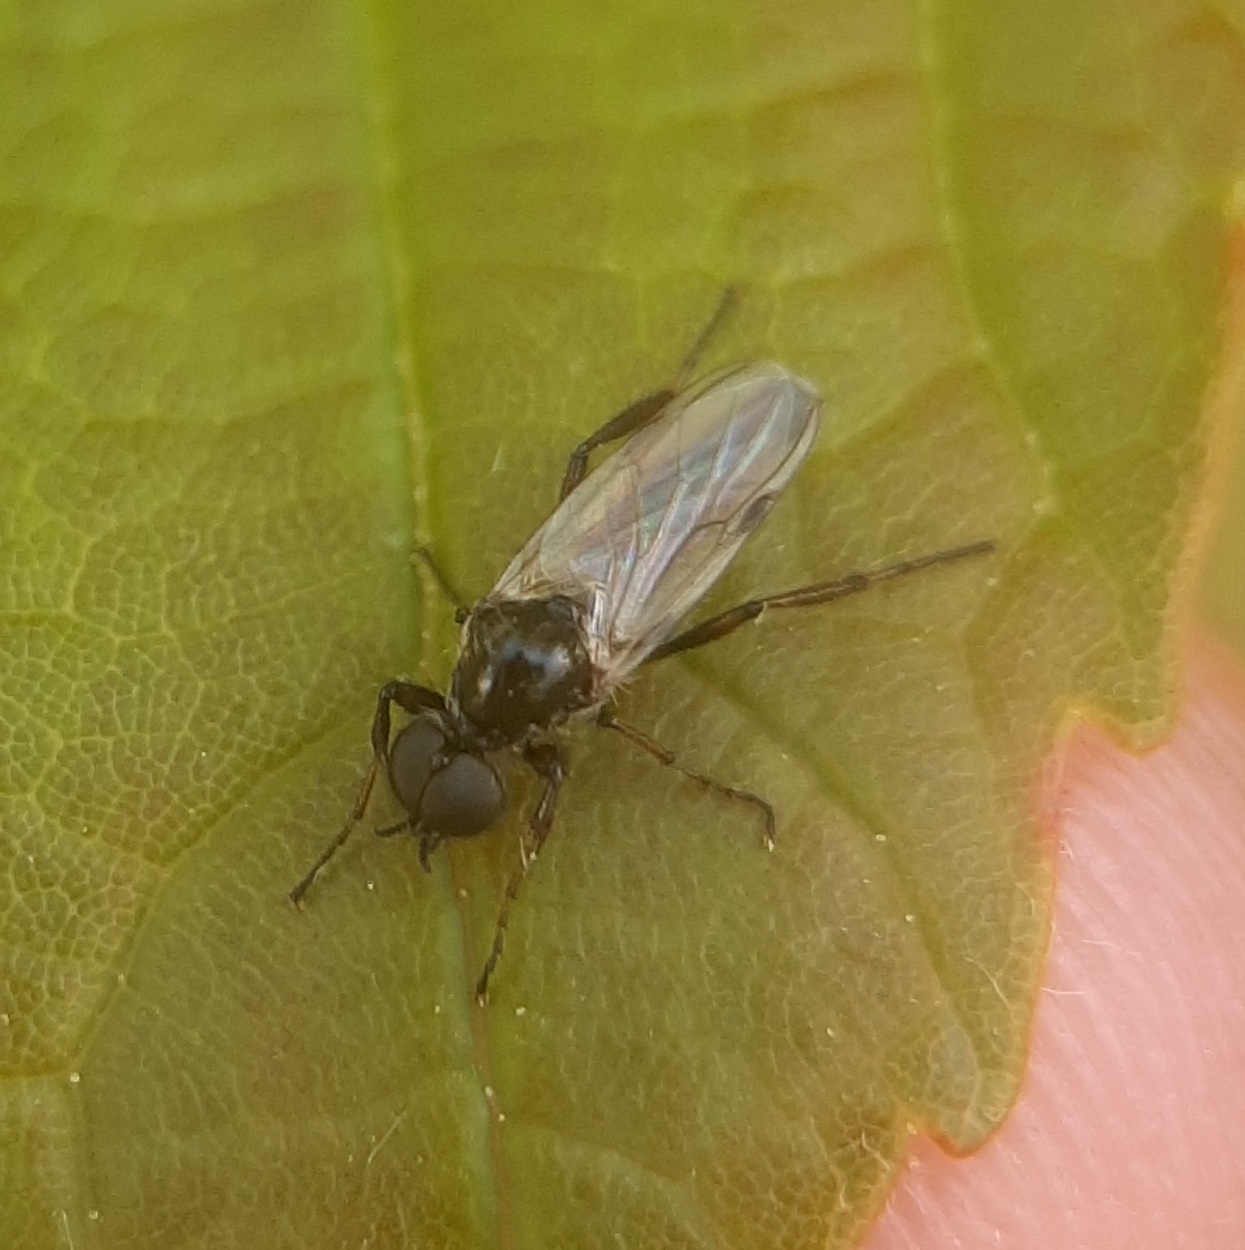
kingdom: Animalia
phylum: Arthropoda
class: Insecta
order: Diptera
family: Bibionidae
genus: Bibio
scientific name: Bibio
